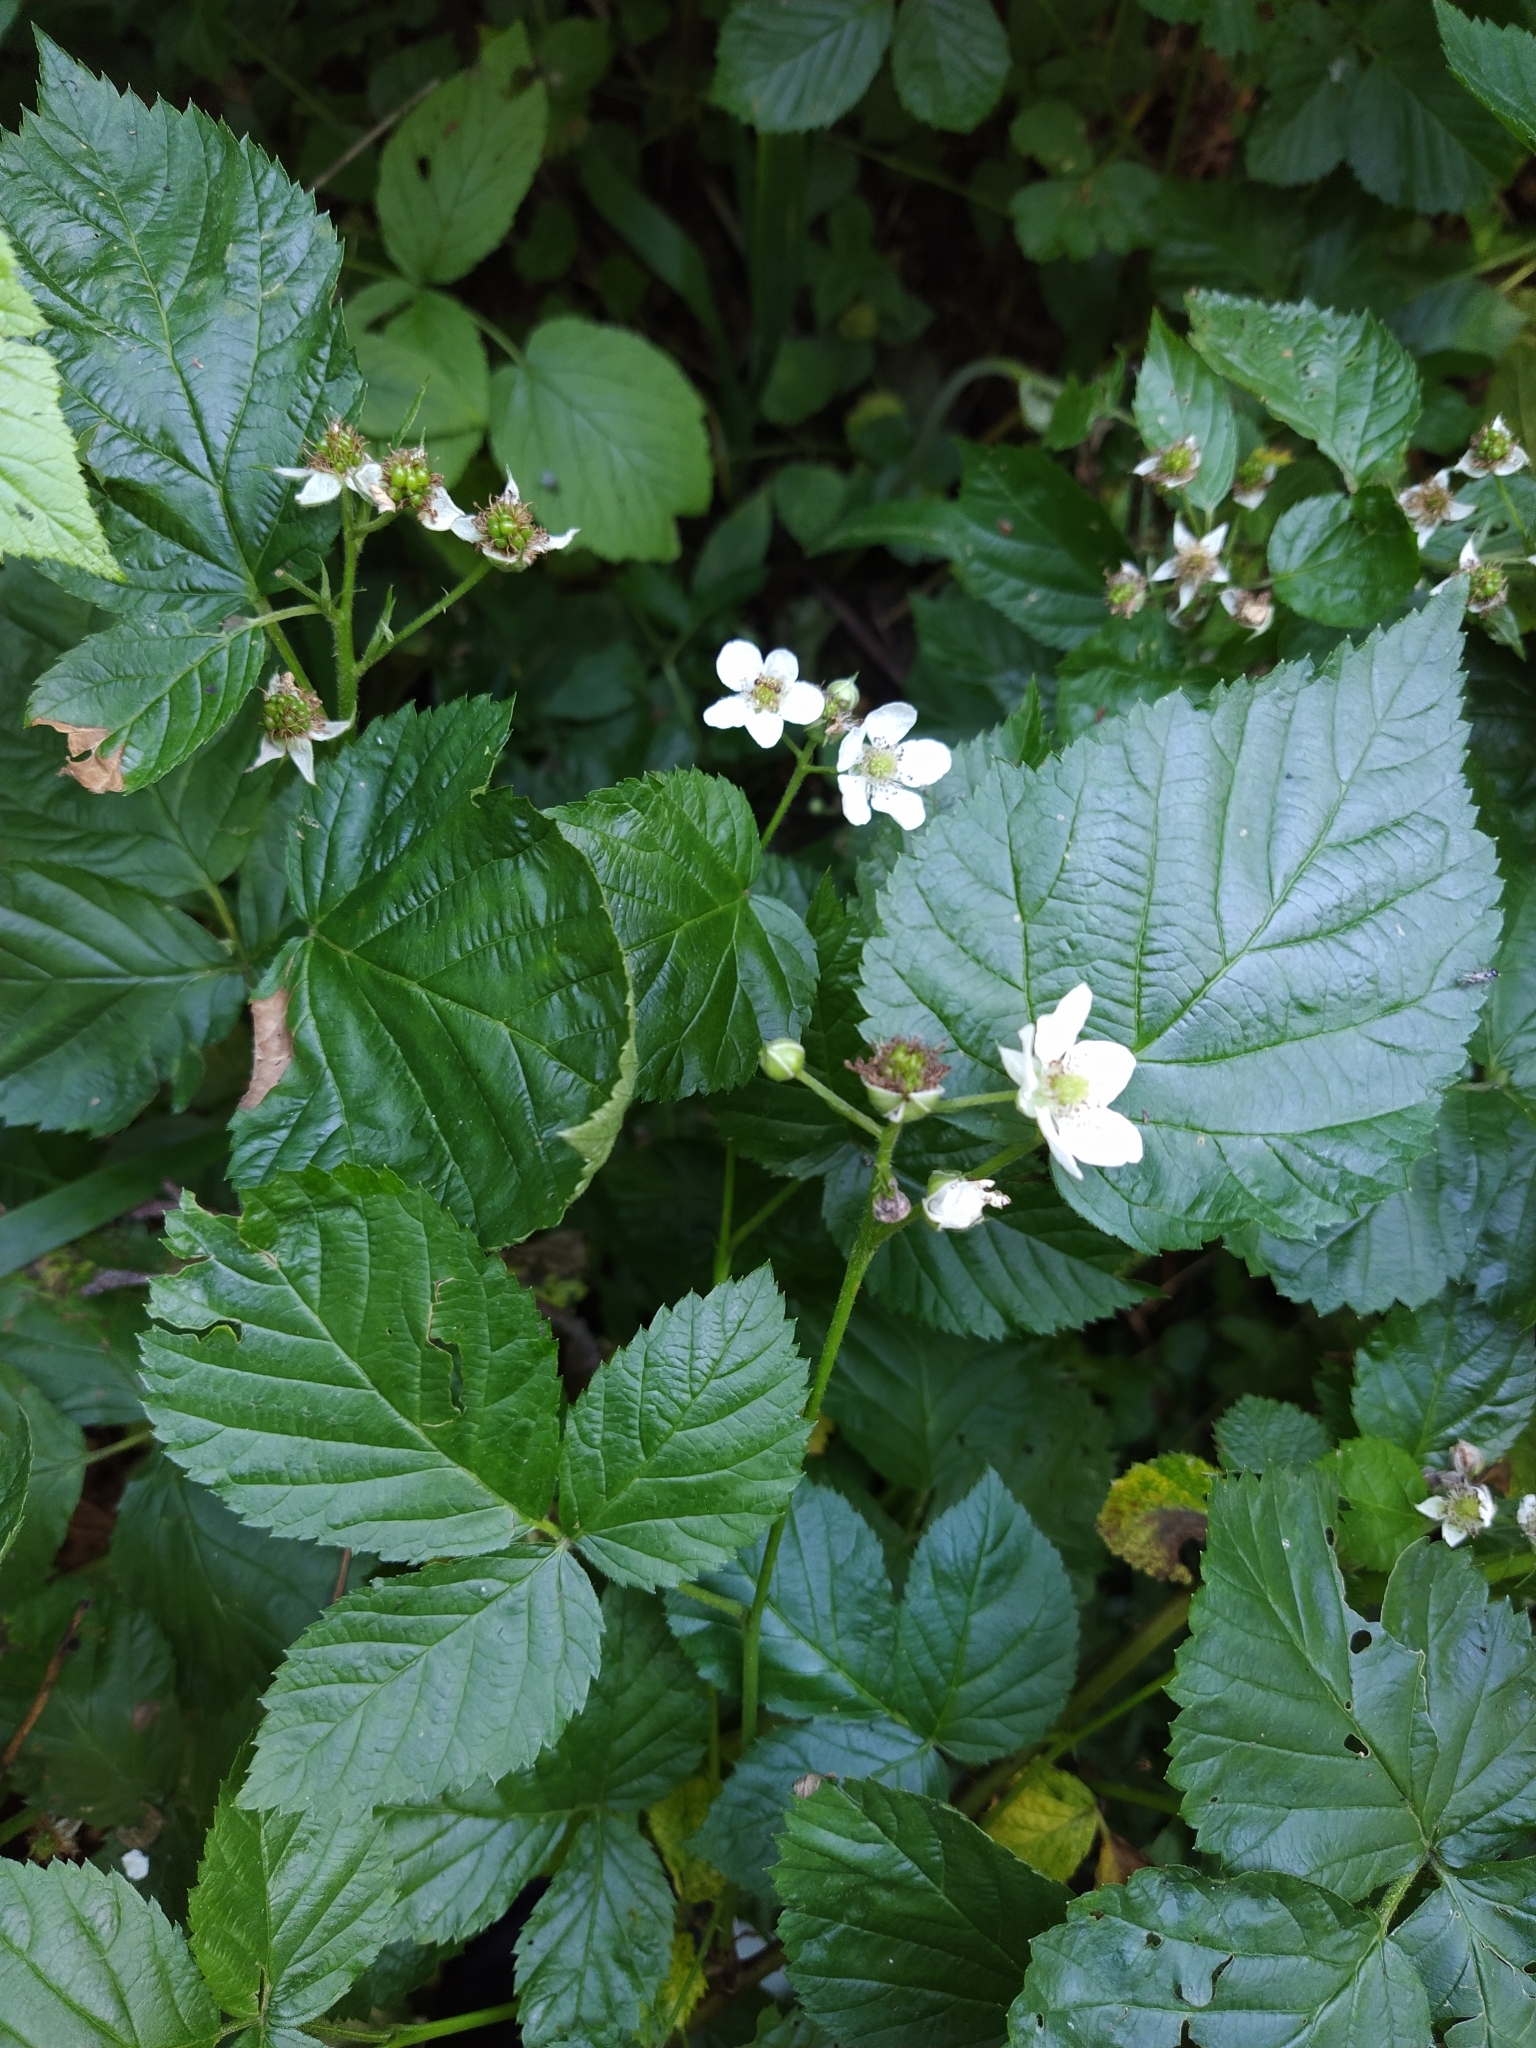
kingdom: Plantae
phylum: Tracheophyta
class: Magnoliopsida
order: Rosales
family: Rosaceae
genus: Rubus
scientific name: Rubus polonicus
